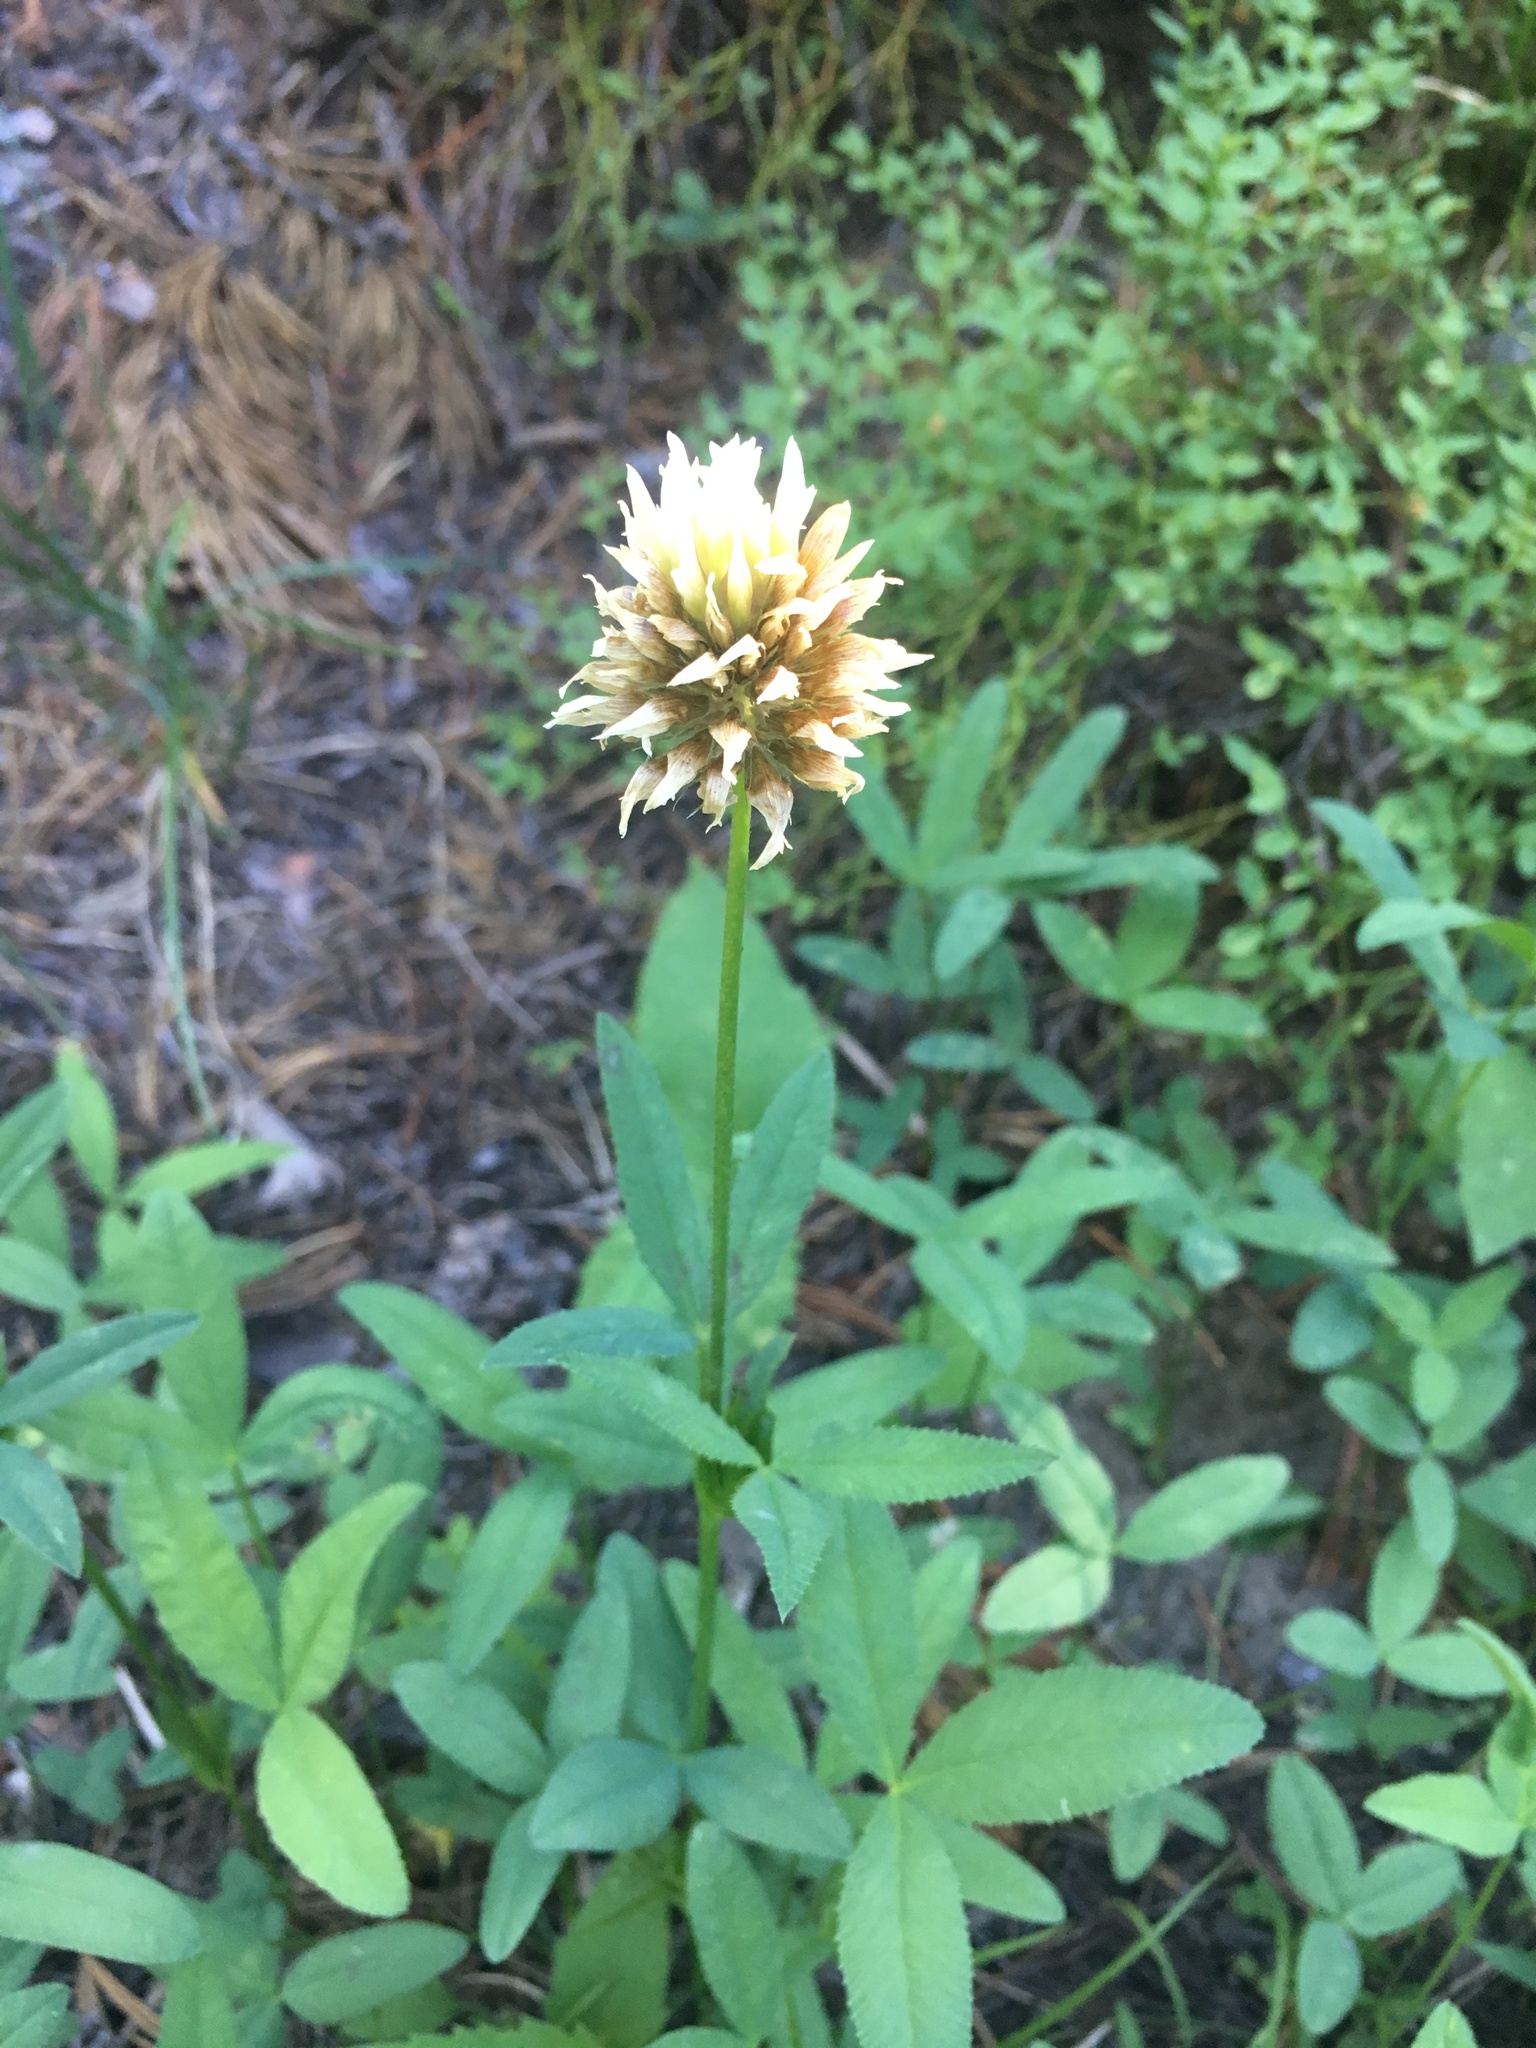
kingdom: Plantae
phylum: Tracheophyta
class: Magnoliopsida
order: Fabales
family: Fabaceae
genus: Trifolium
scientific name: Trifolium longipes
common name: Long-stalk clover
